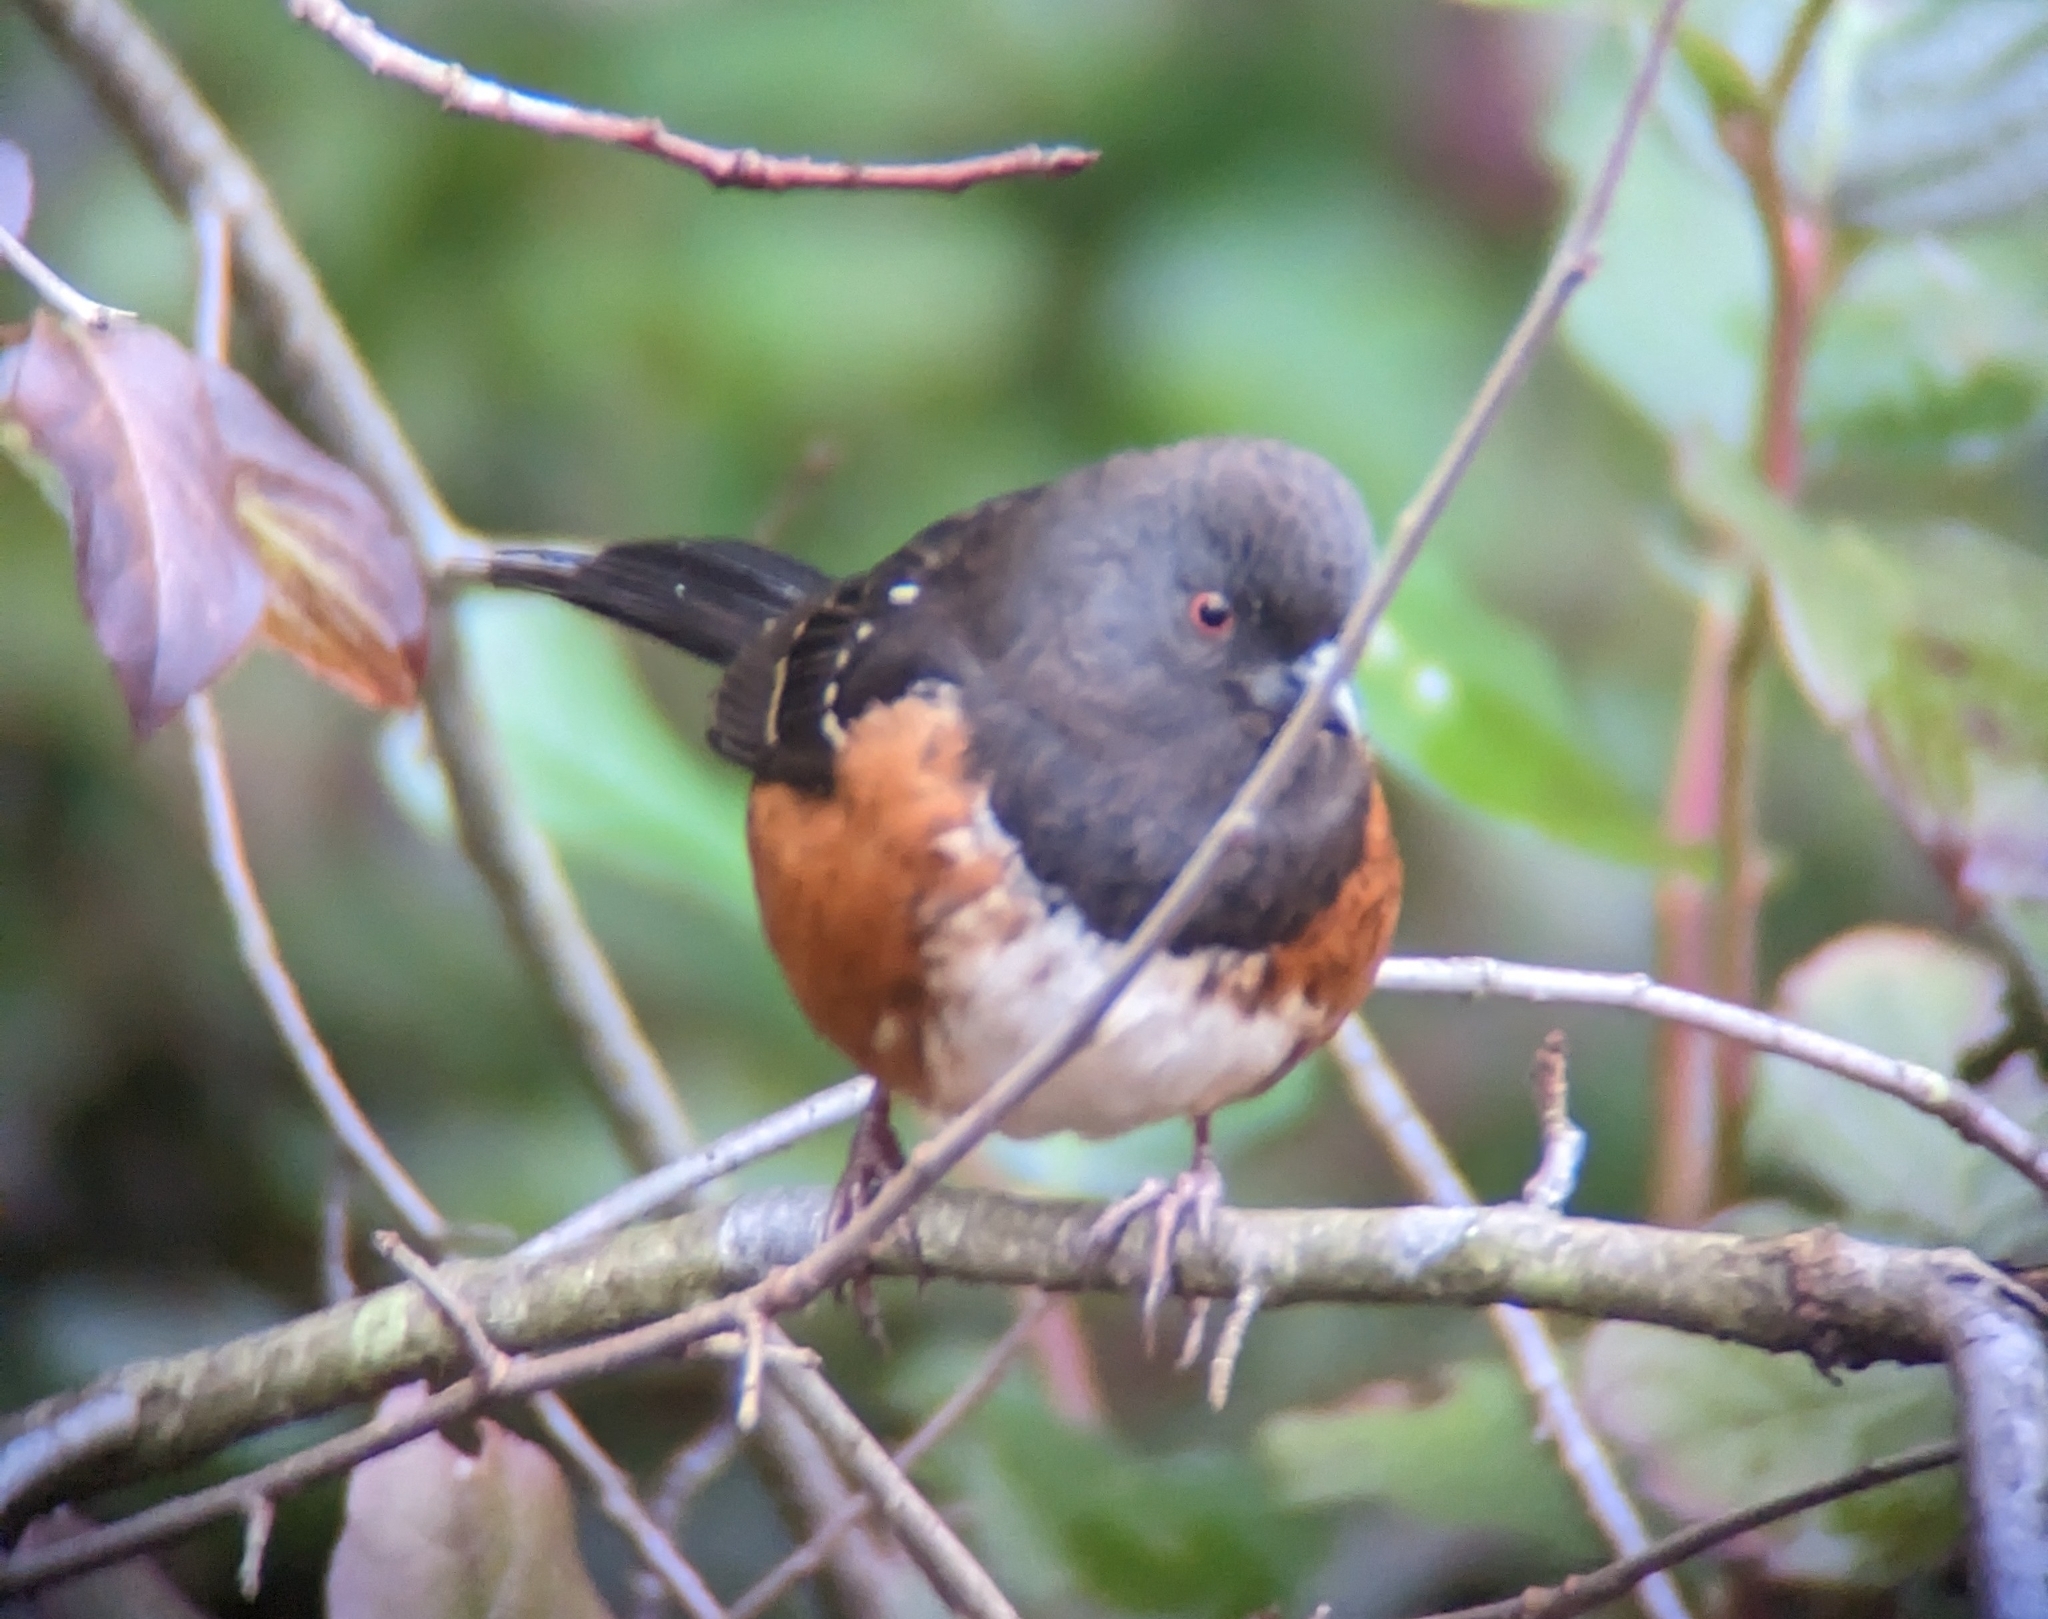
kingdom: Animalia
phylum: Chordata
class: Aves
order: Passeriformes
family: Passerellidae
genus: Pipilo
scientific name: Pipilo maculatus
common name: Spotted towhee
